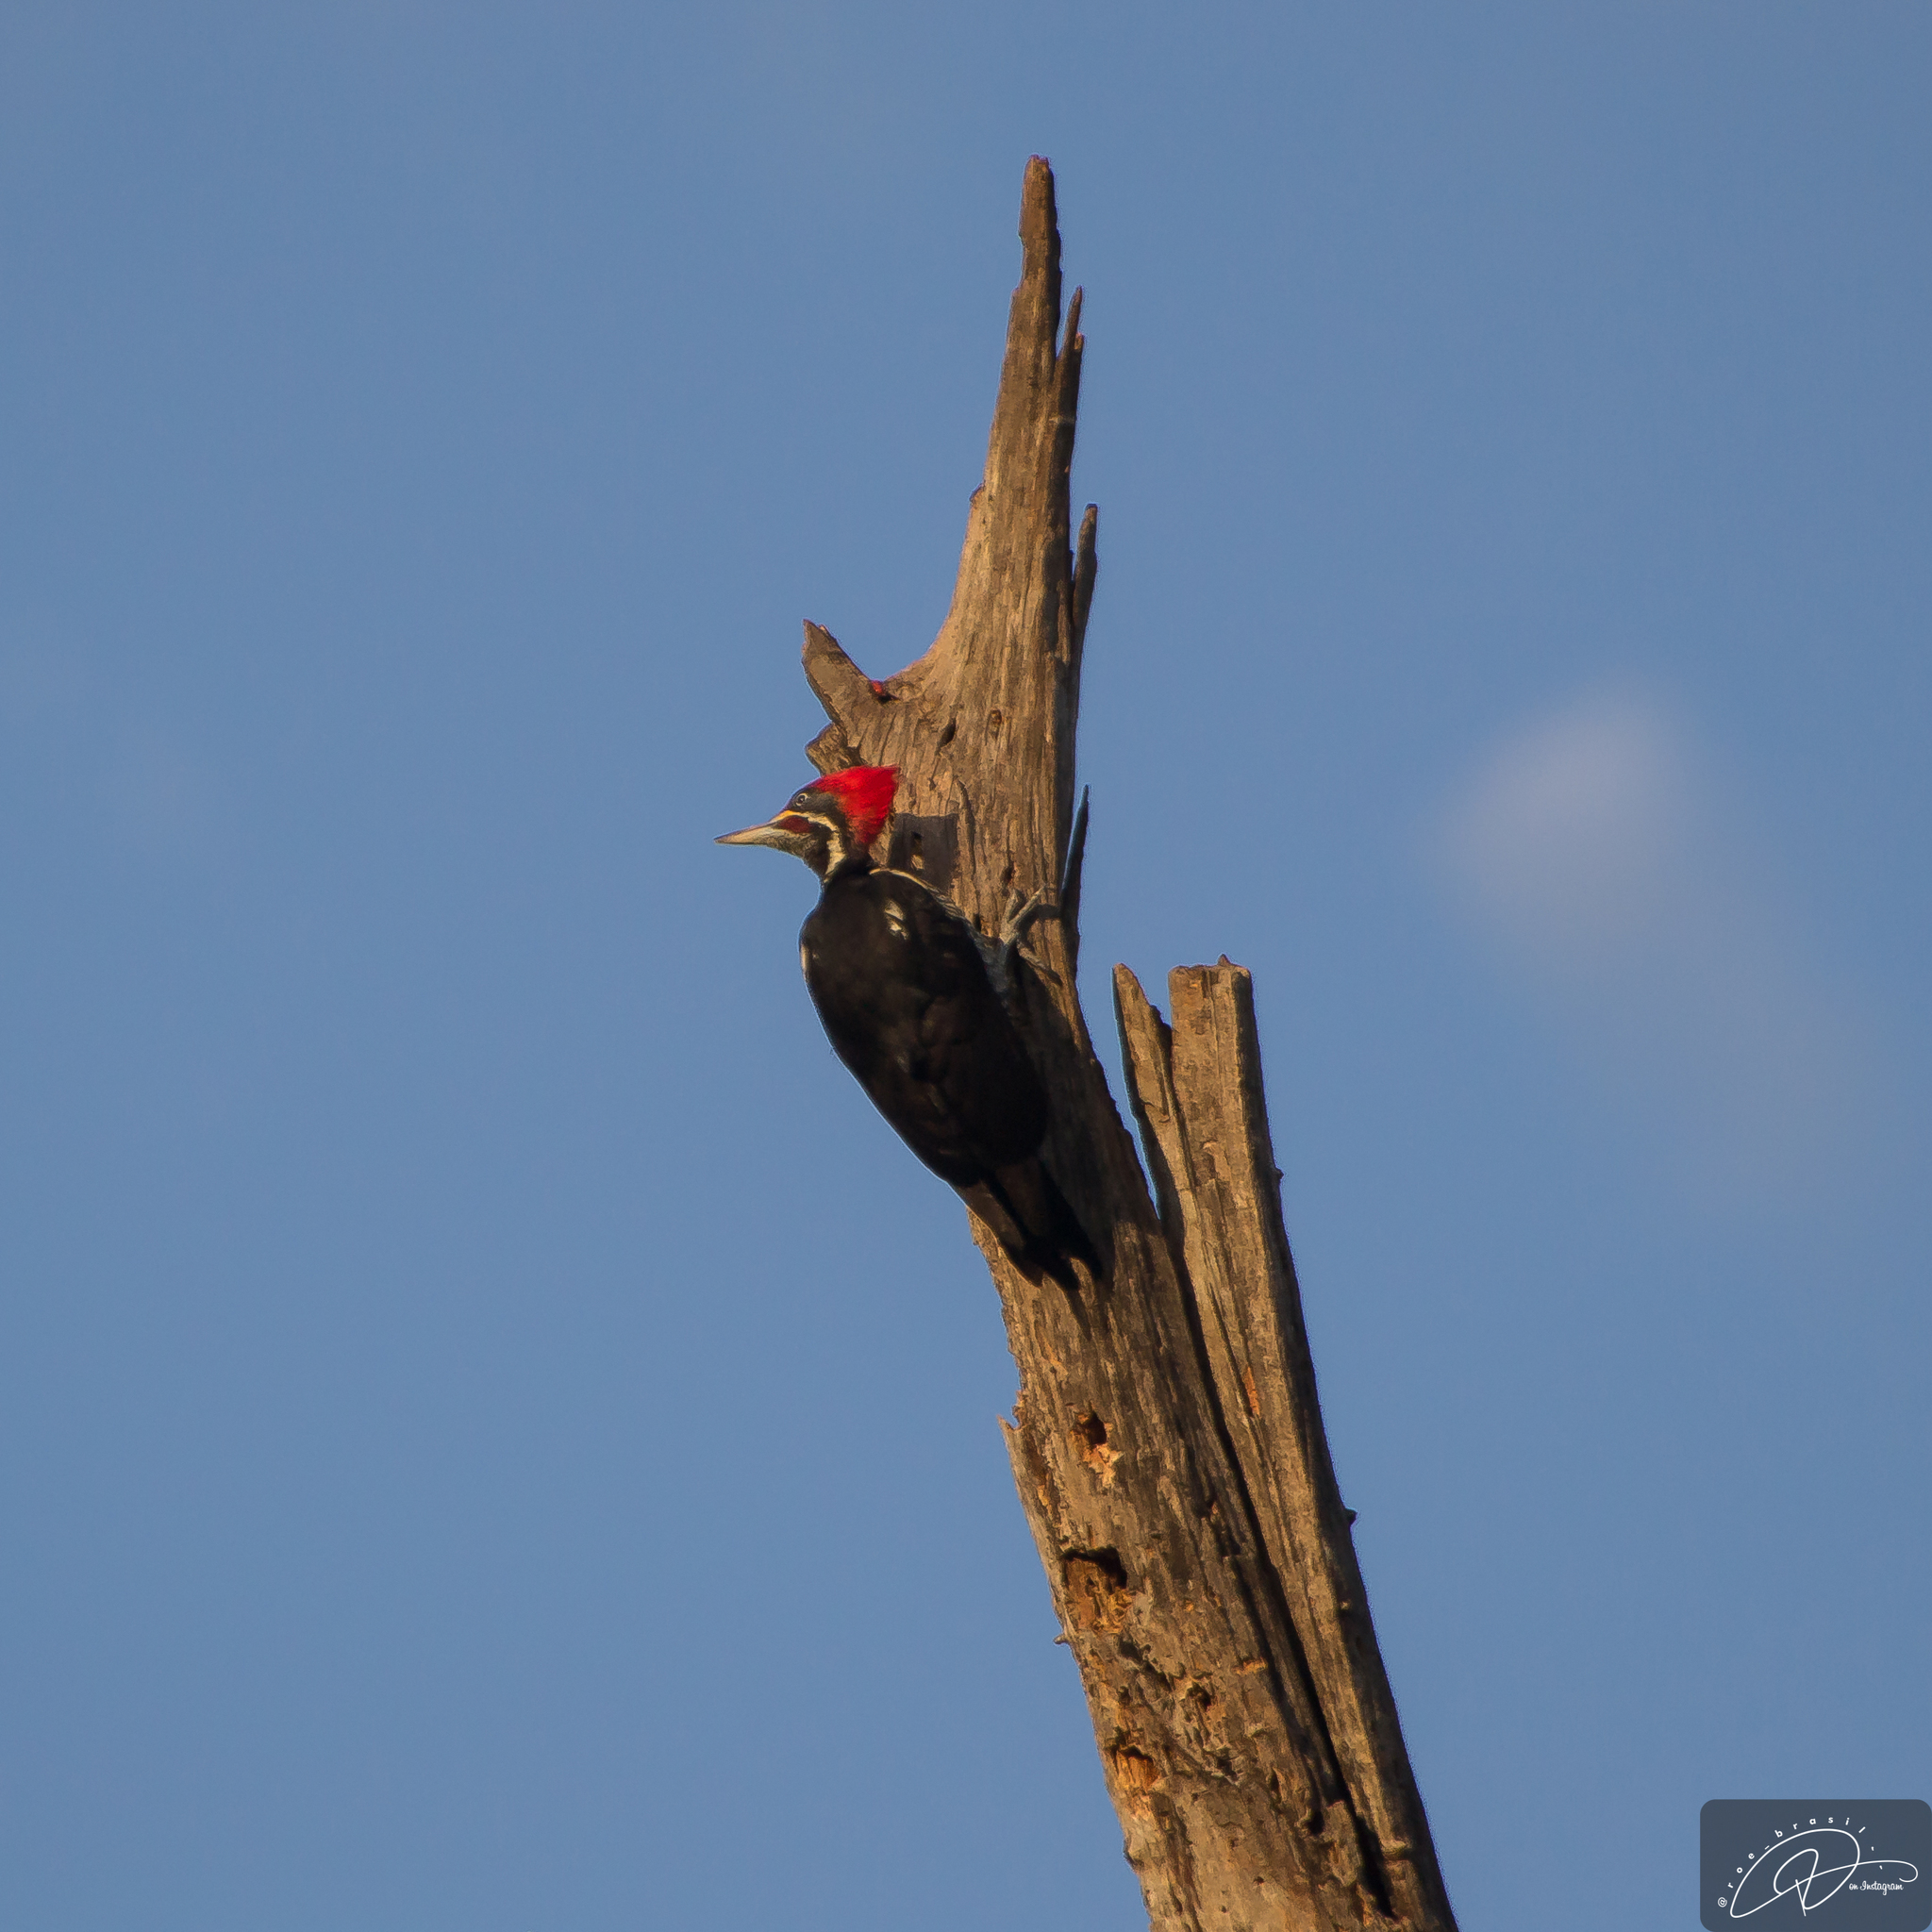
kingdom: Animalia
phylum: Chordata
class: Aves
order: Piciformes
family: Picidae
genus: Dryocopus
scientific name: Dryocopus lineatus
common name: Lineated woodpecker
